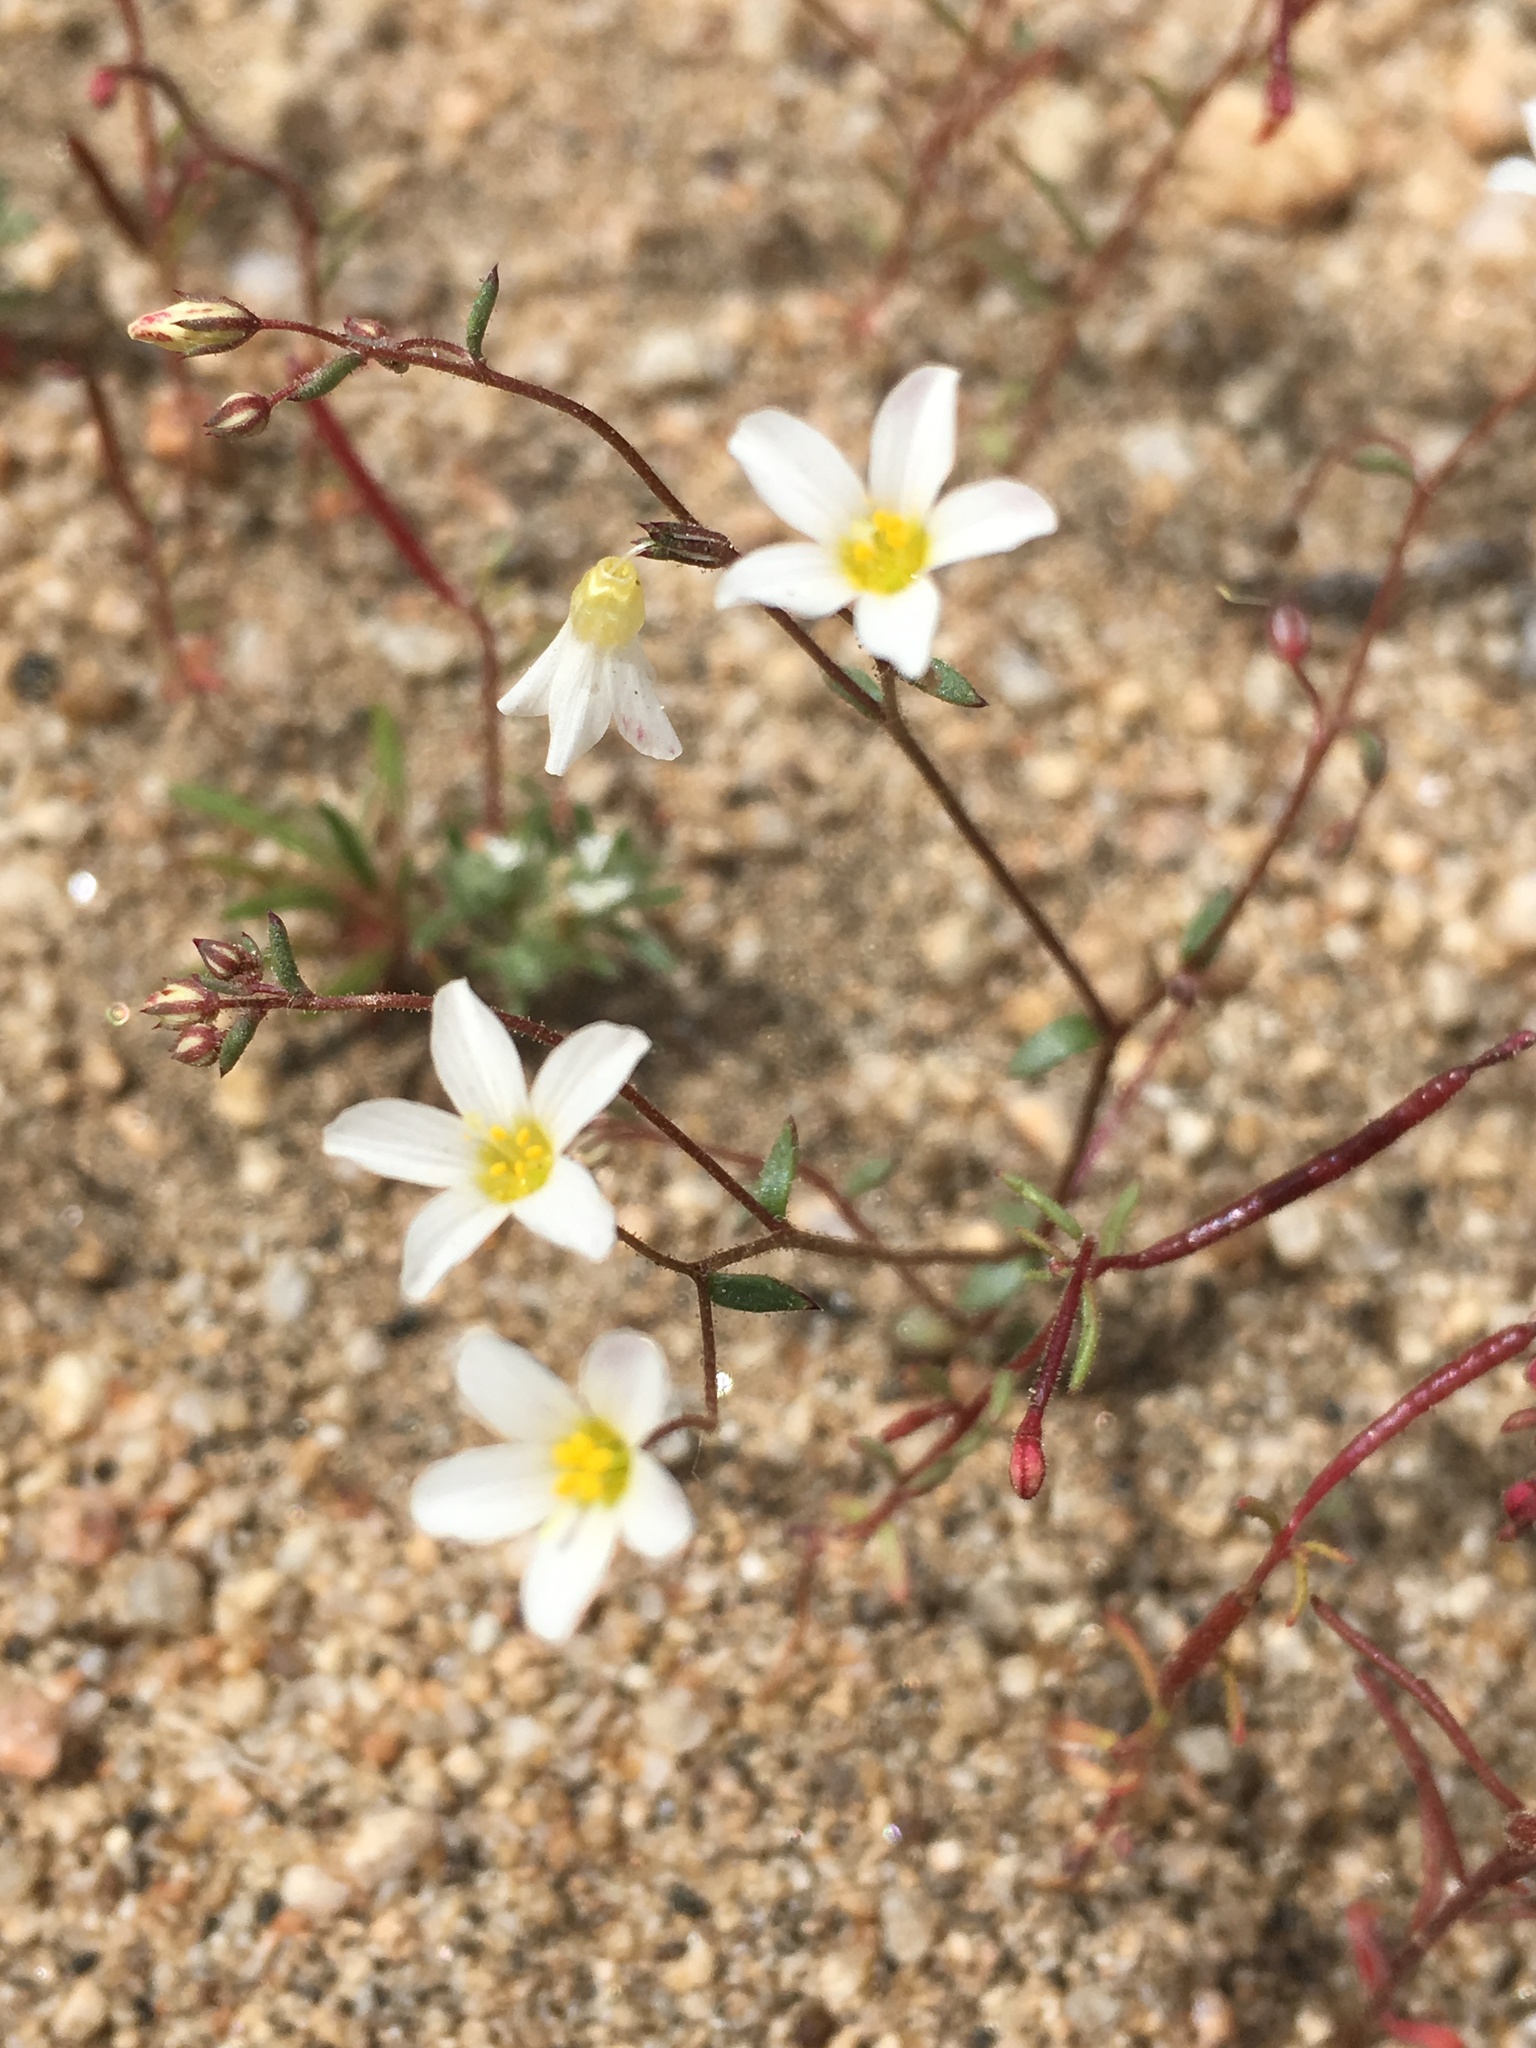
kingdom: Plantae
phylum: Tracheophyta
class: Magnoliopsida
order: Ericales
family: Polemoniaceae
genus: Linanthus
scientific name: Linanthus inyoensis
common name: Inyo gilia
